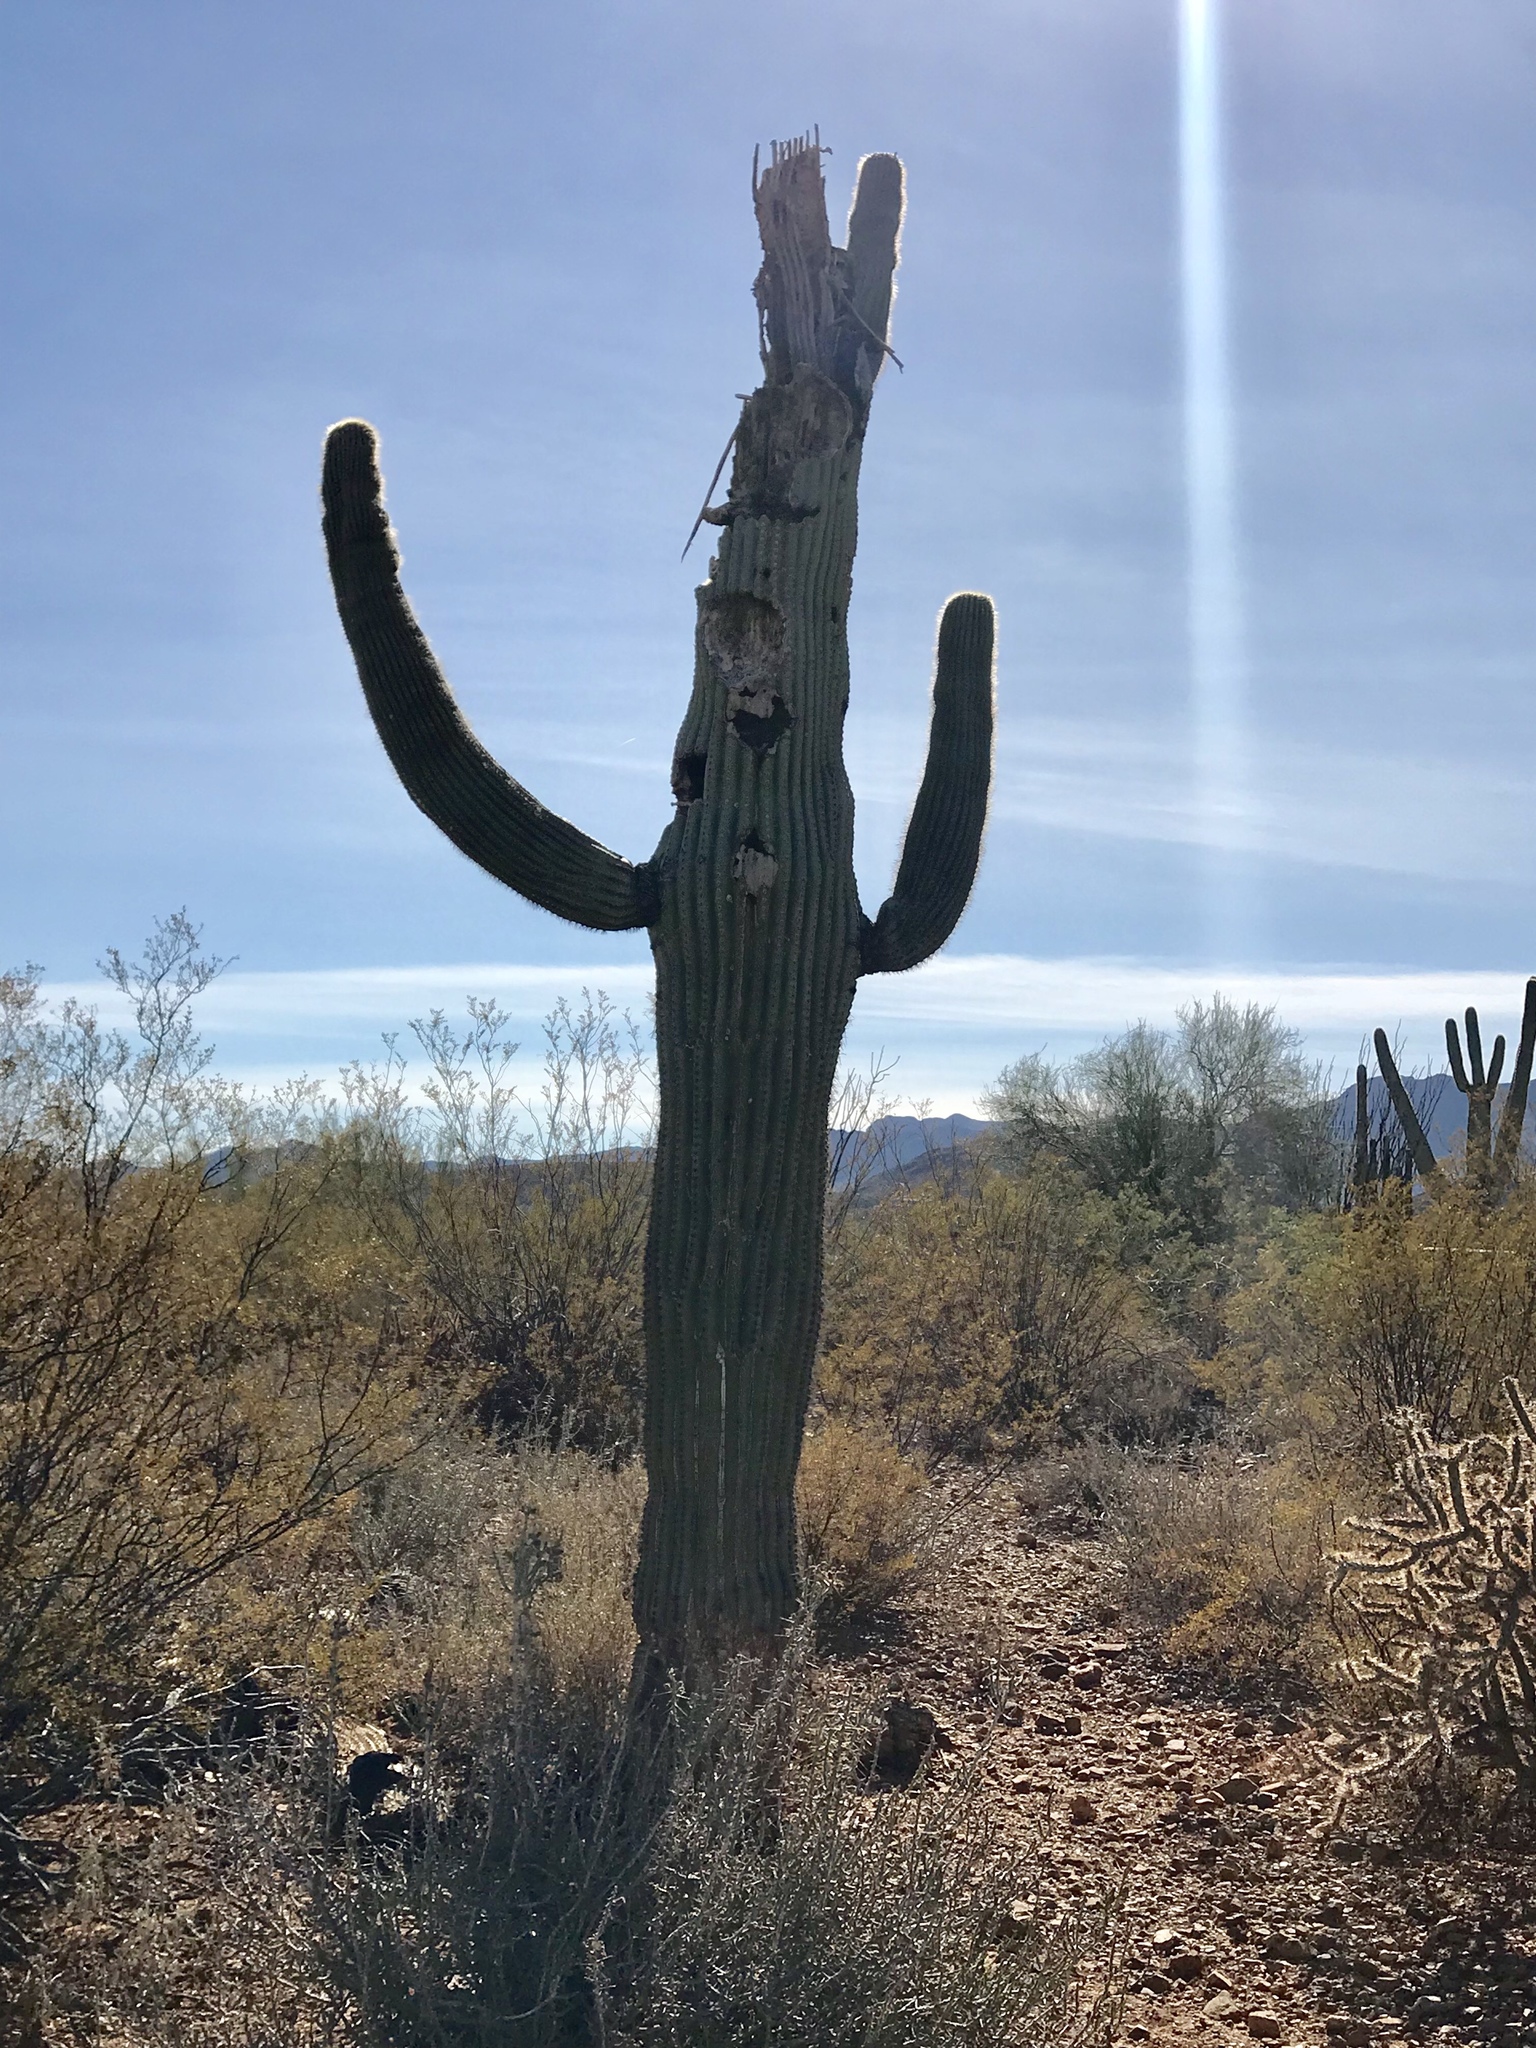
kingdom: Plantae
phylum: Tracheophyta
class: Magnoliopsida
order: Caryophyllales
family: Cactaceae
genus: Carnegiea
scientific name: Carnegiea gigantea
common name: Saguaro
